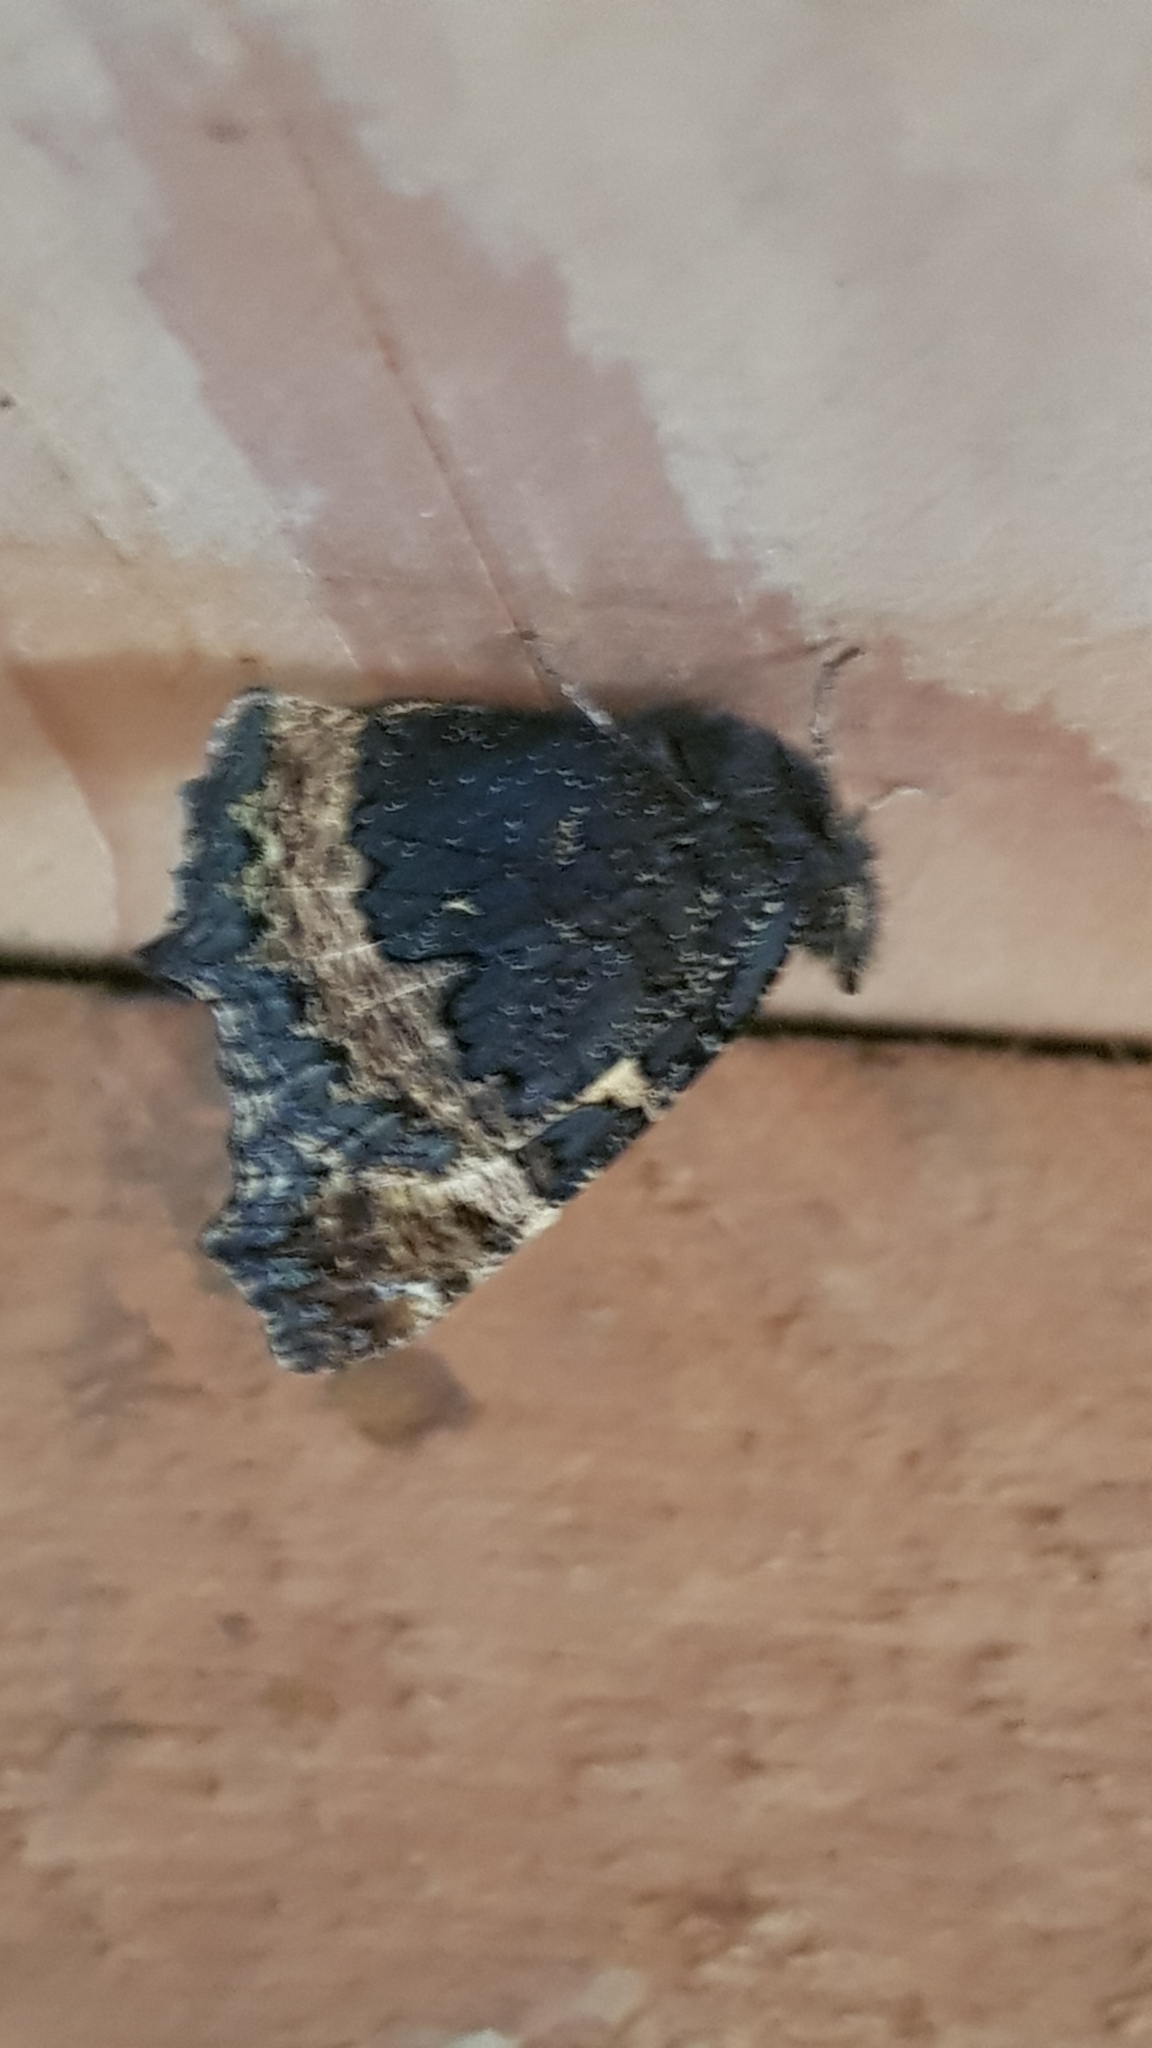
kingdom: Animalia
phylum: Arthropoda
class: Insecta
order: Lepidoptera
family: Nymphalidae
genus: Aglais
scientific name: Aglais urticae
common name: Small tortoiseshell
